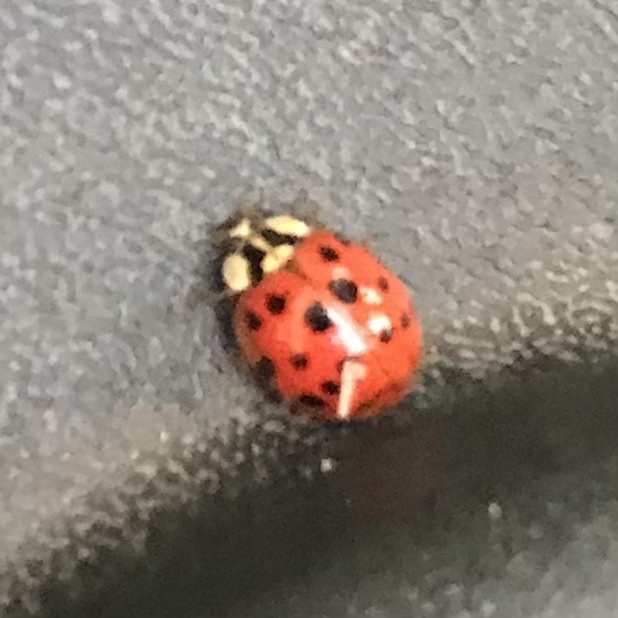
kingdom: Animalia
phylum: Arthropoda
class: Insecta
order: Coleoptera
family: Coccinellidae
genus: Harmonia
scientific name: Harmonia axyridis
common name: Harlequin ladybird
